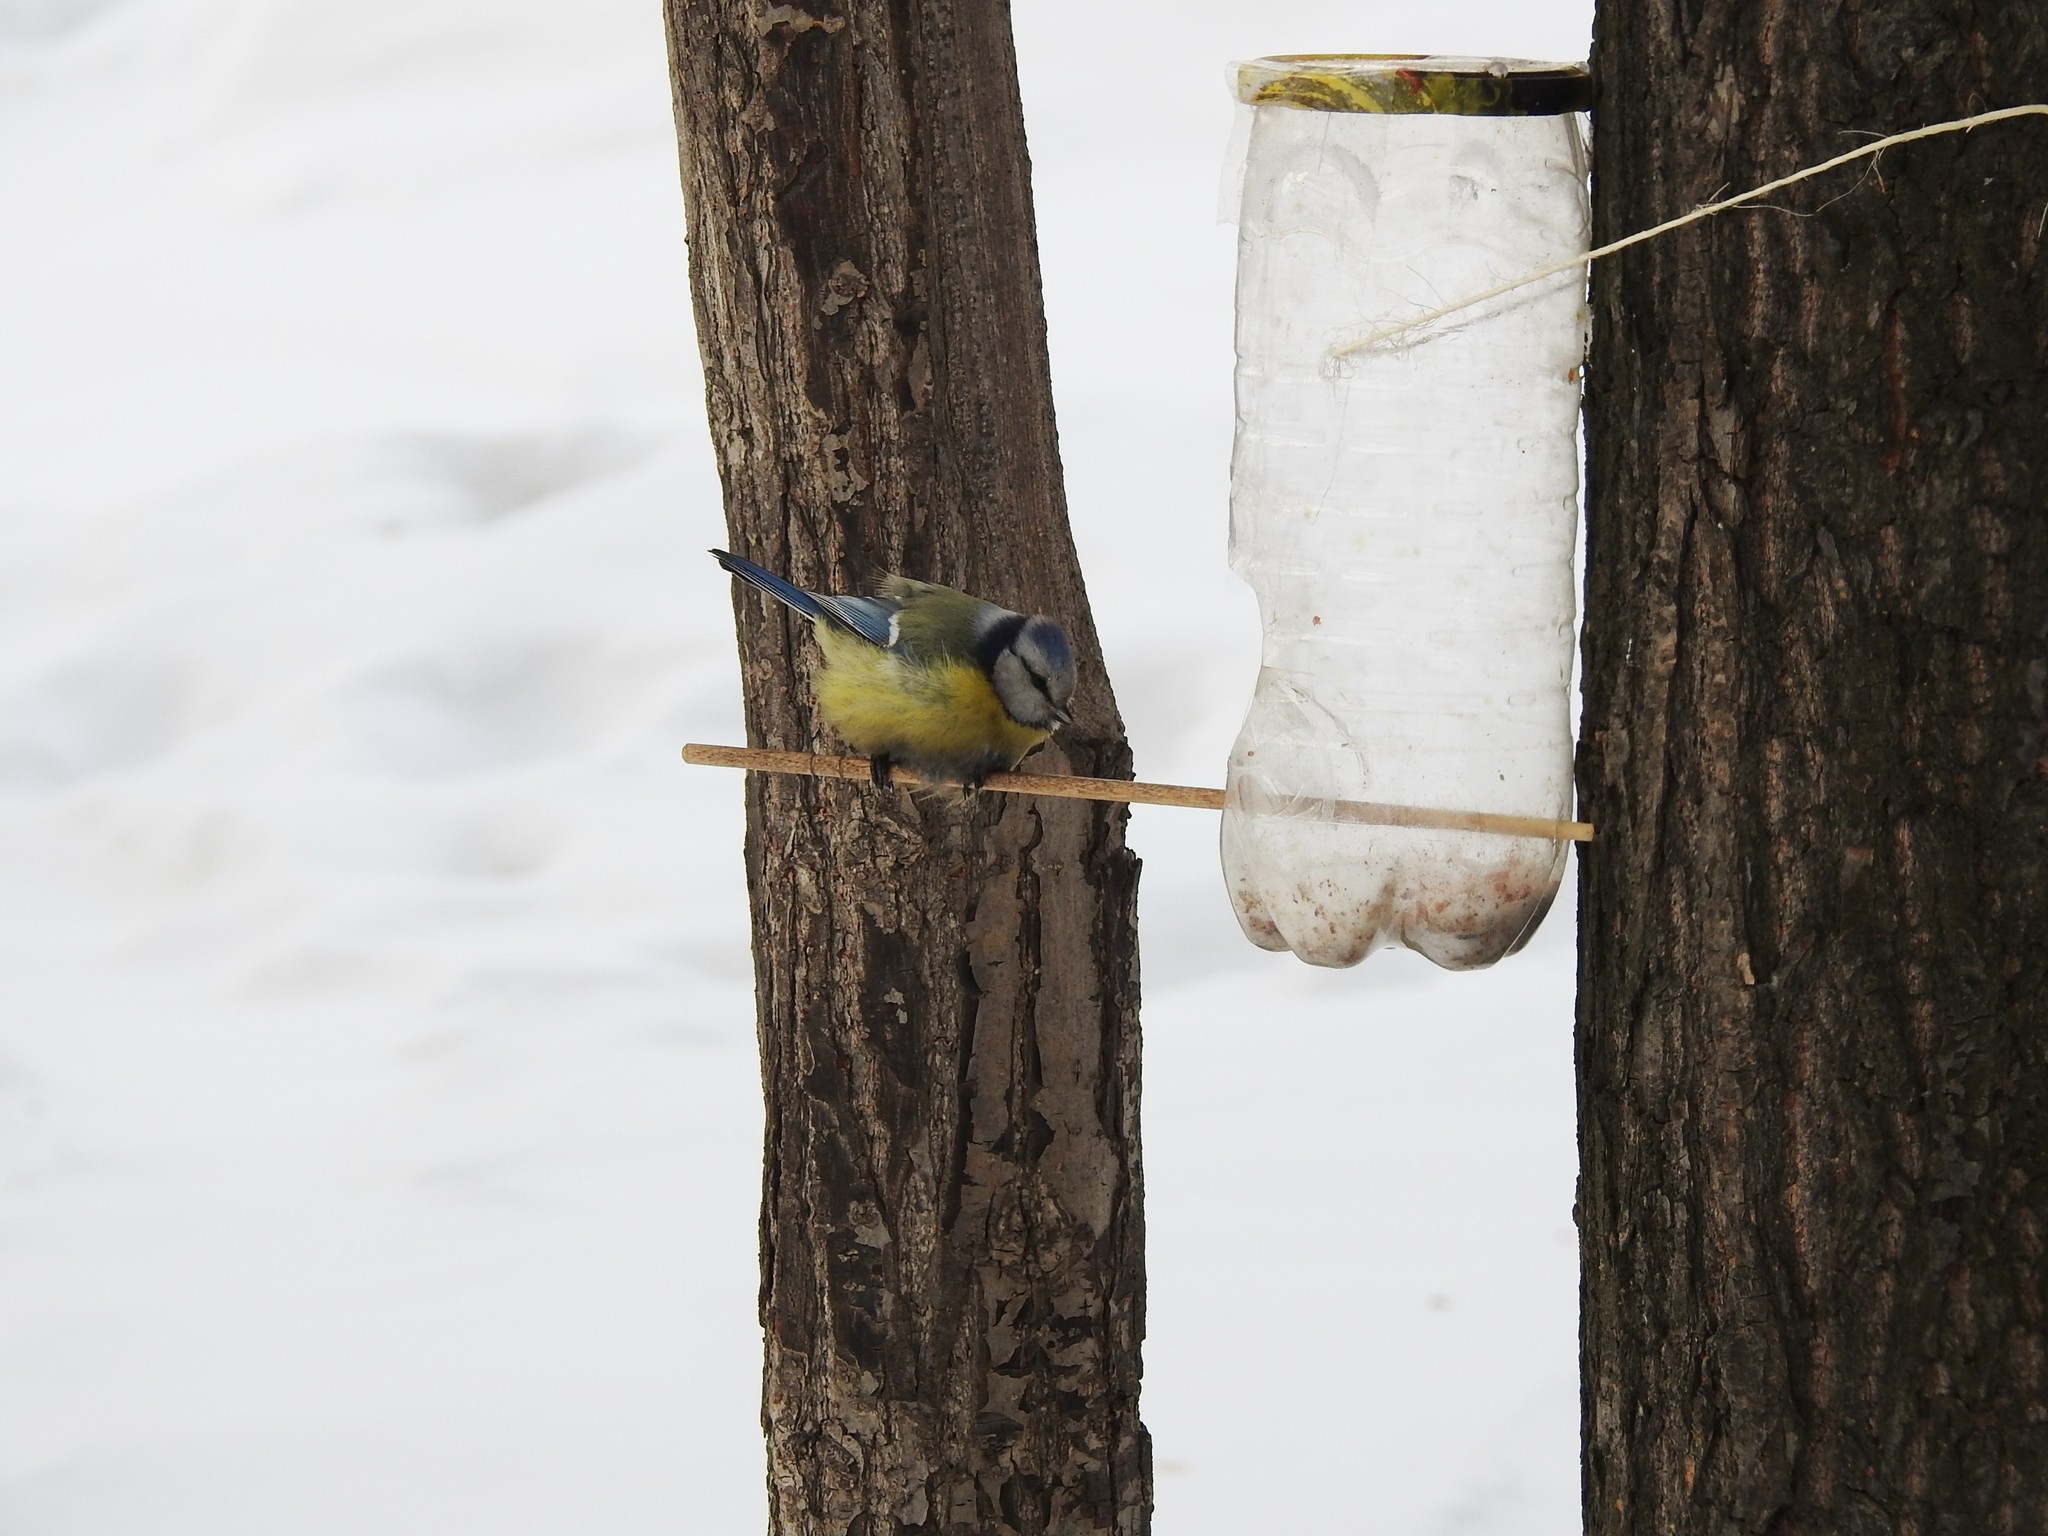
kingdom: Animalia
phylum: Chordata
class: Aves
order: Passeriformes
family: Paridae
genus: Cyanistes
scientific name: Cyanistes caeruleus
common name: Eurasian blue tit
